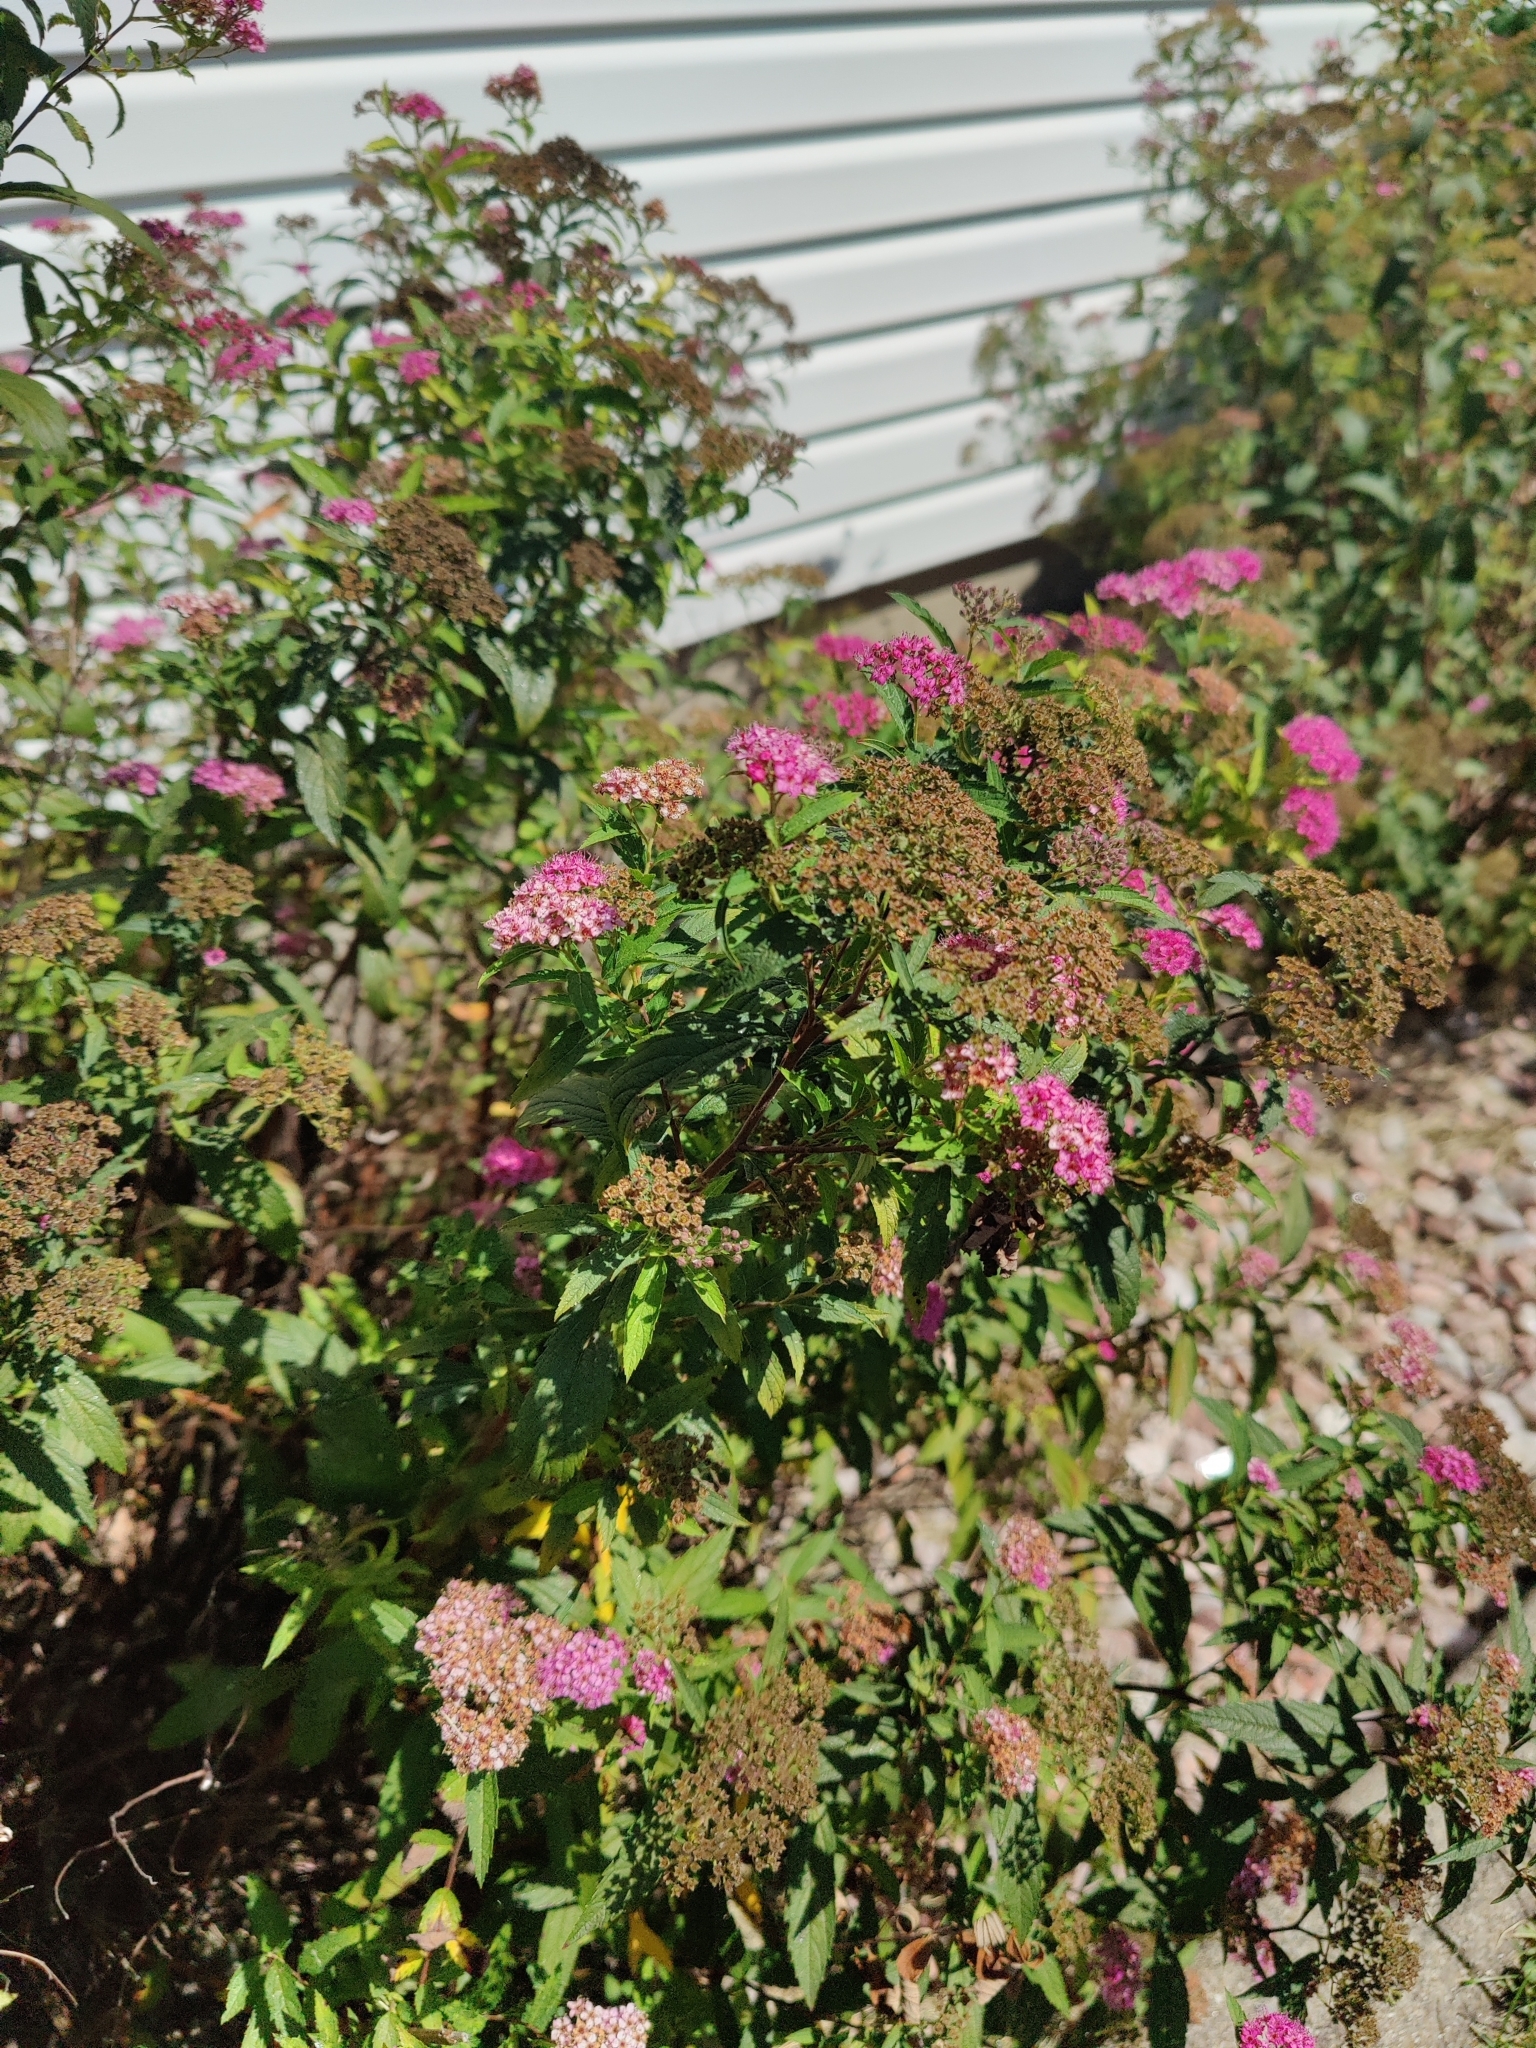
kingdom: Plantae
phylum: Tracheophyta
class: Magnoliopsida
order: Rosales
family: Rosaceae
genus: Spiraea
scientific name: Spiraea japonica
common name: Japanese spiraea
